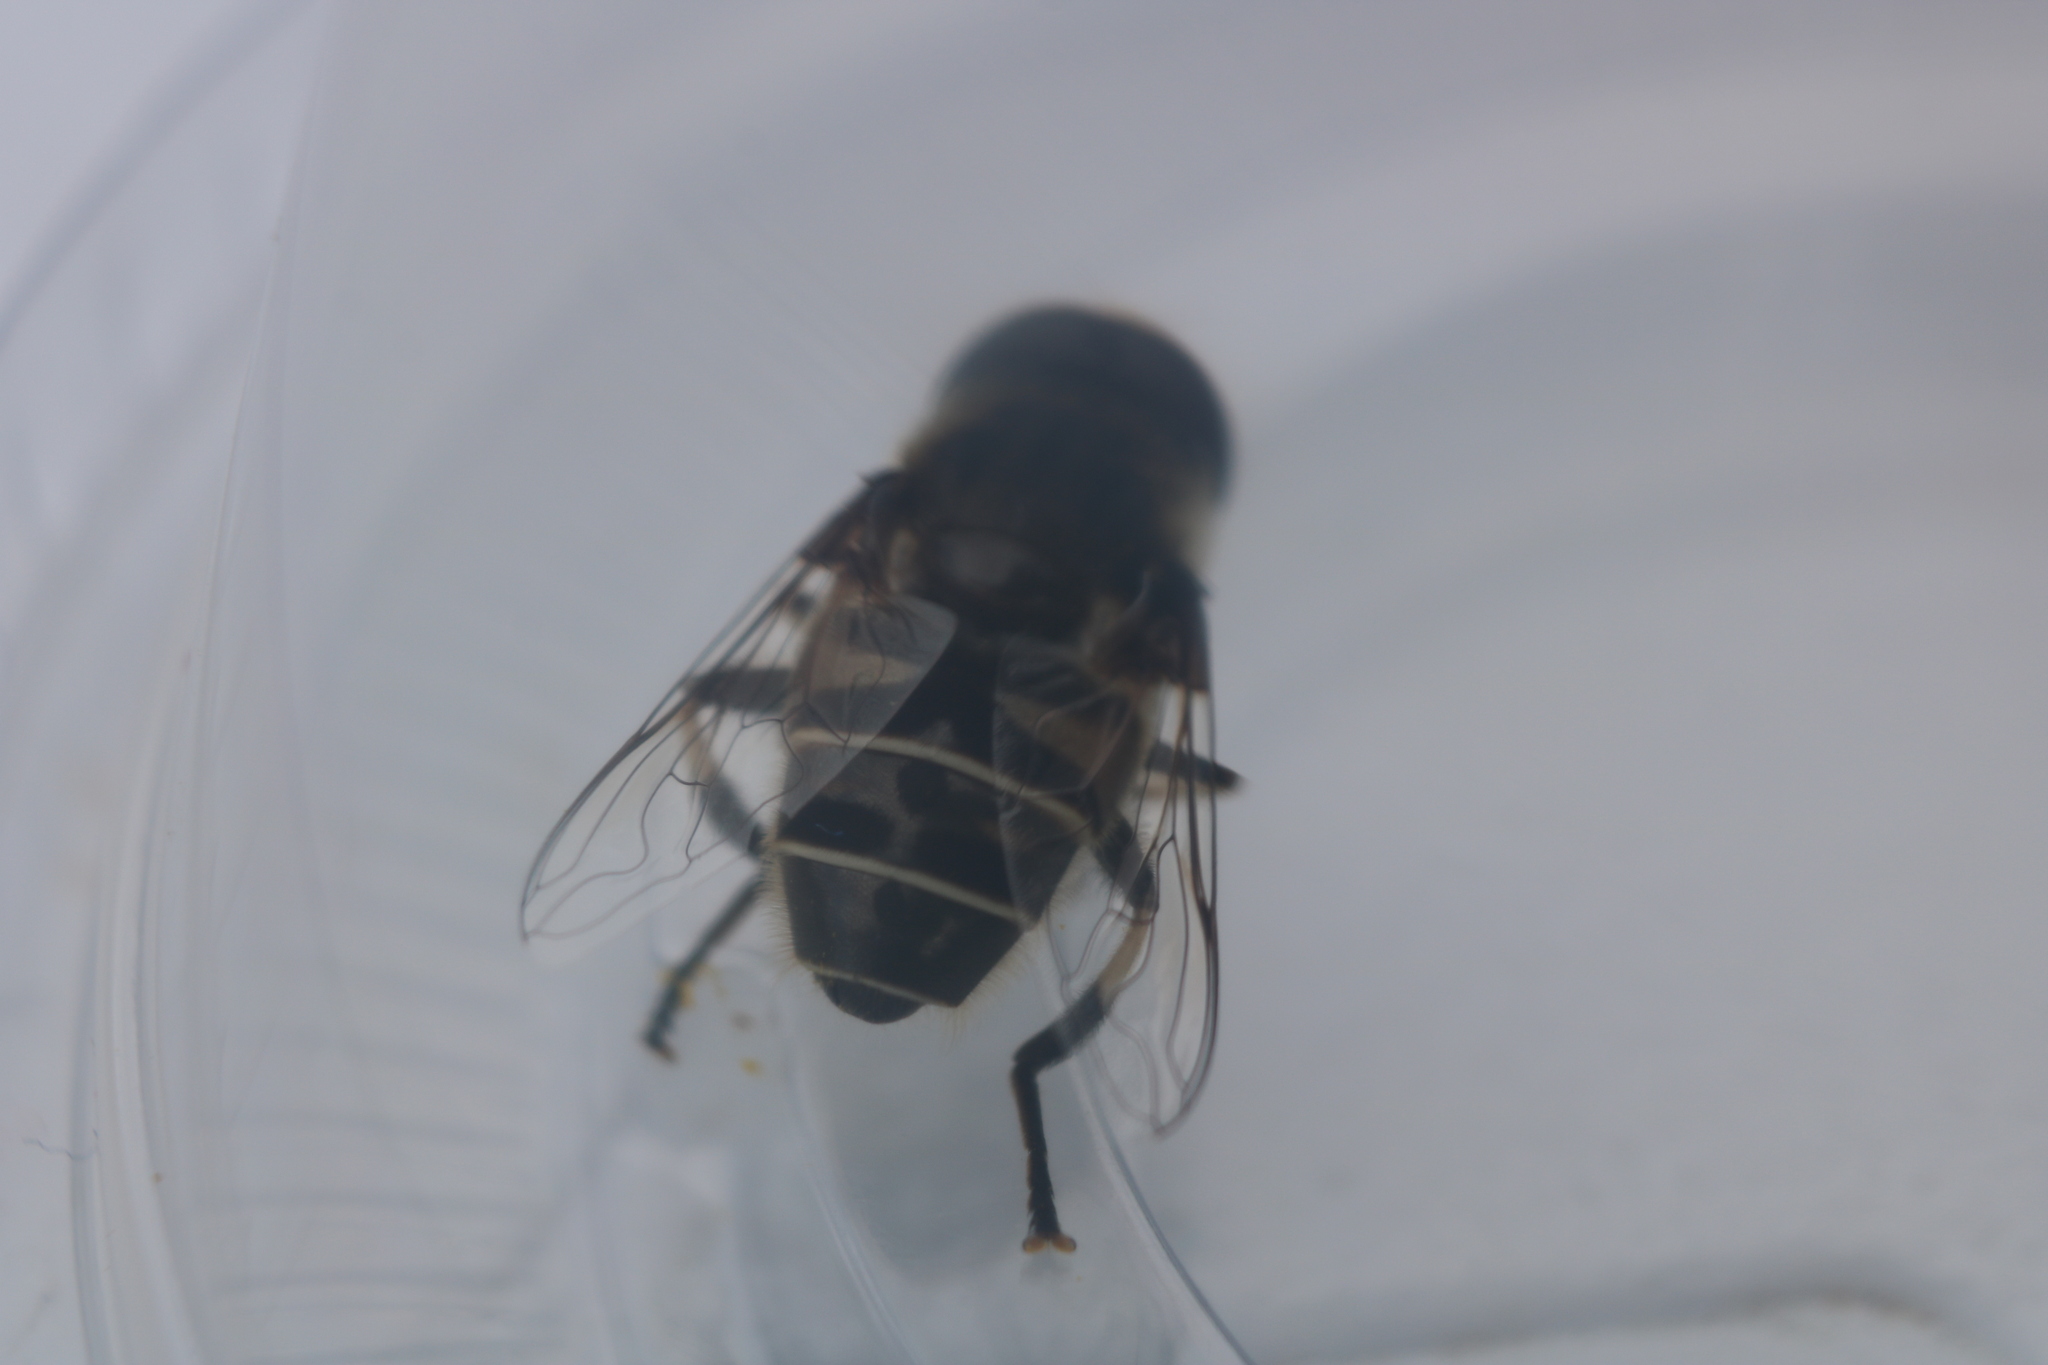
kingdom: Animalia
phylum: Arthropoda
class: Insecta
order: Diptera
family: Syrphidae
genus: Eristalis
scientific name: Eristalis dimidiata
